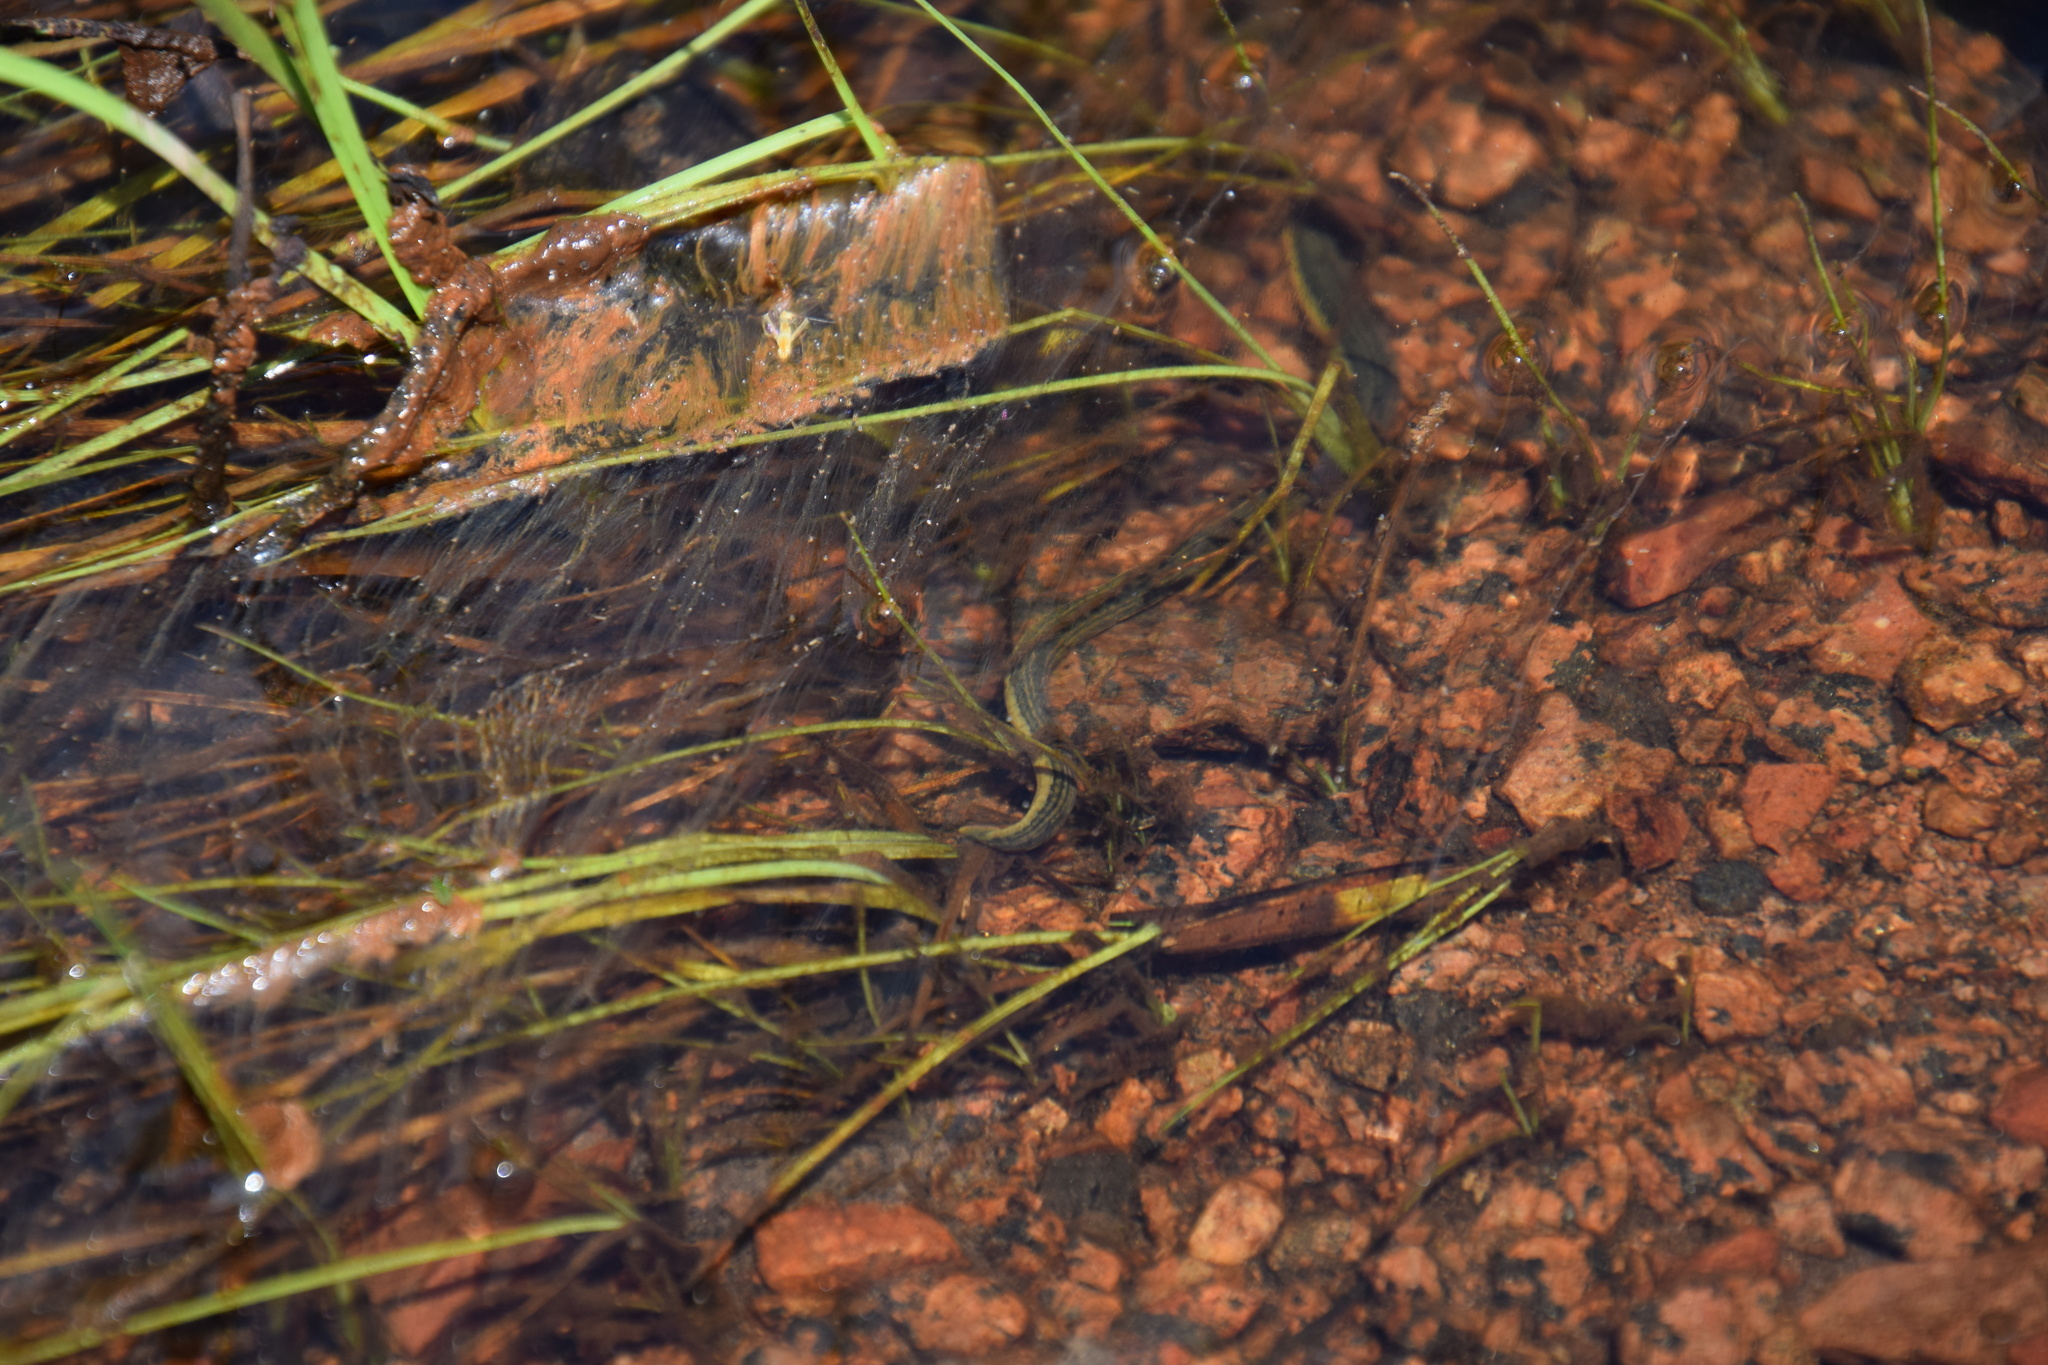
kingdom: Animalia
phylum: Annelida
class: Clitellata
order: Arhynchobdellida
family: Hirudinidae
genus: Goddardobdella
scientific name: Goddardobdella elegans
